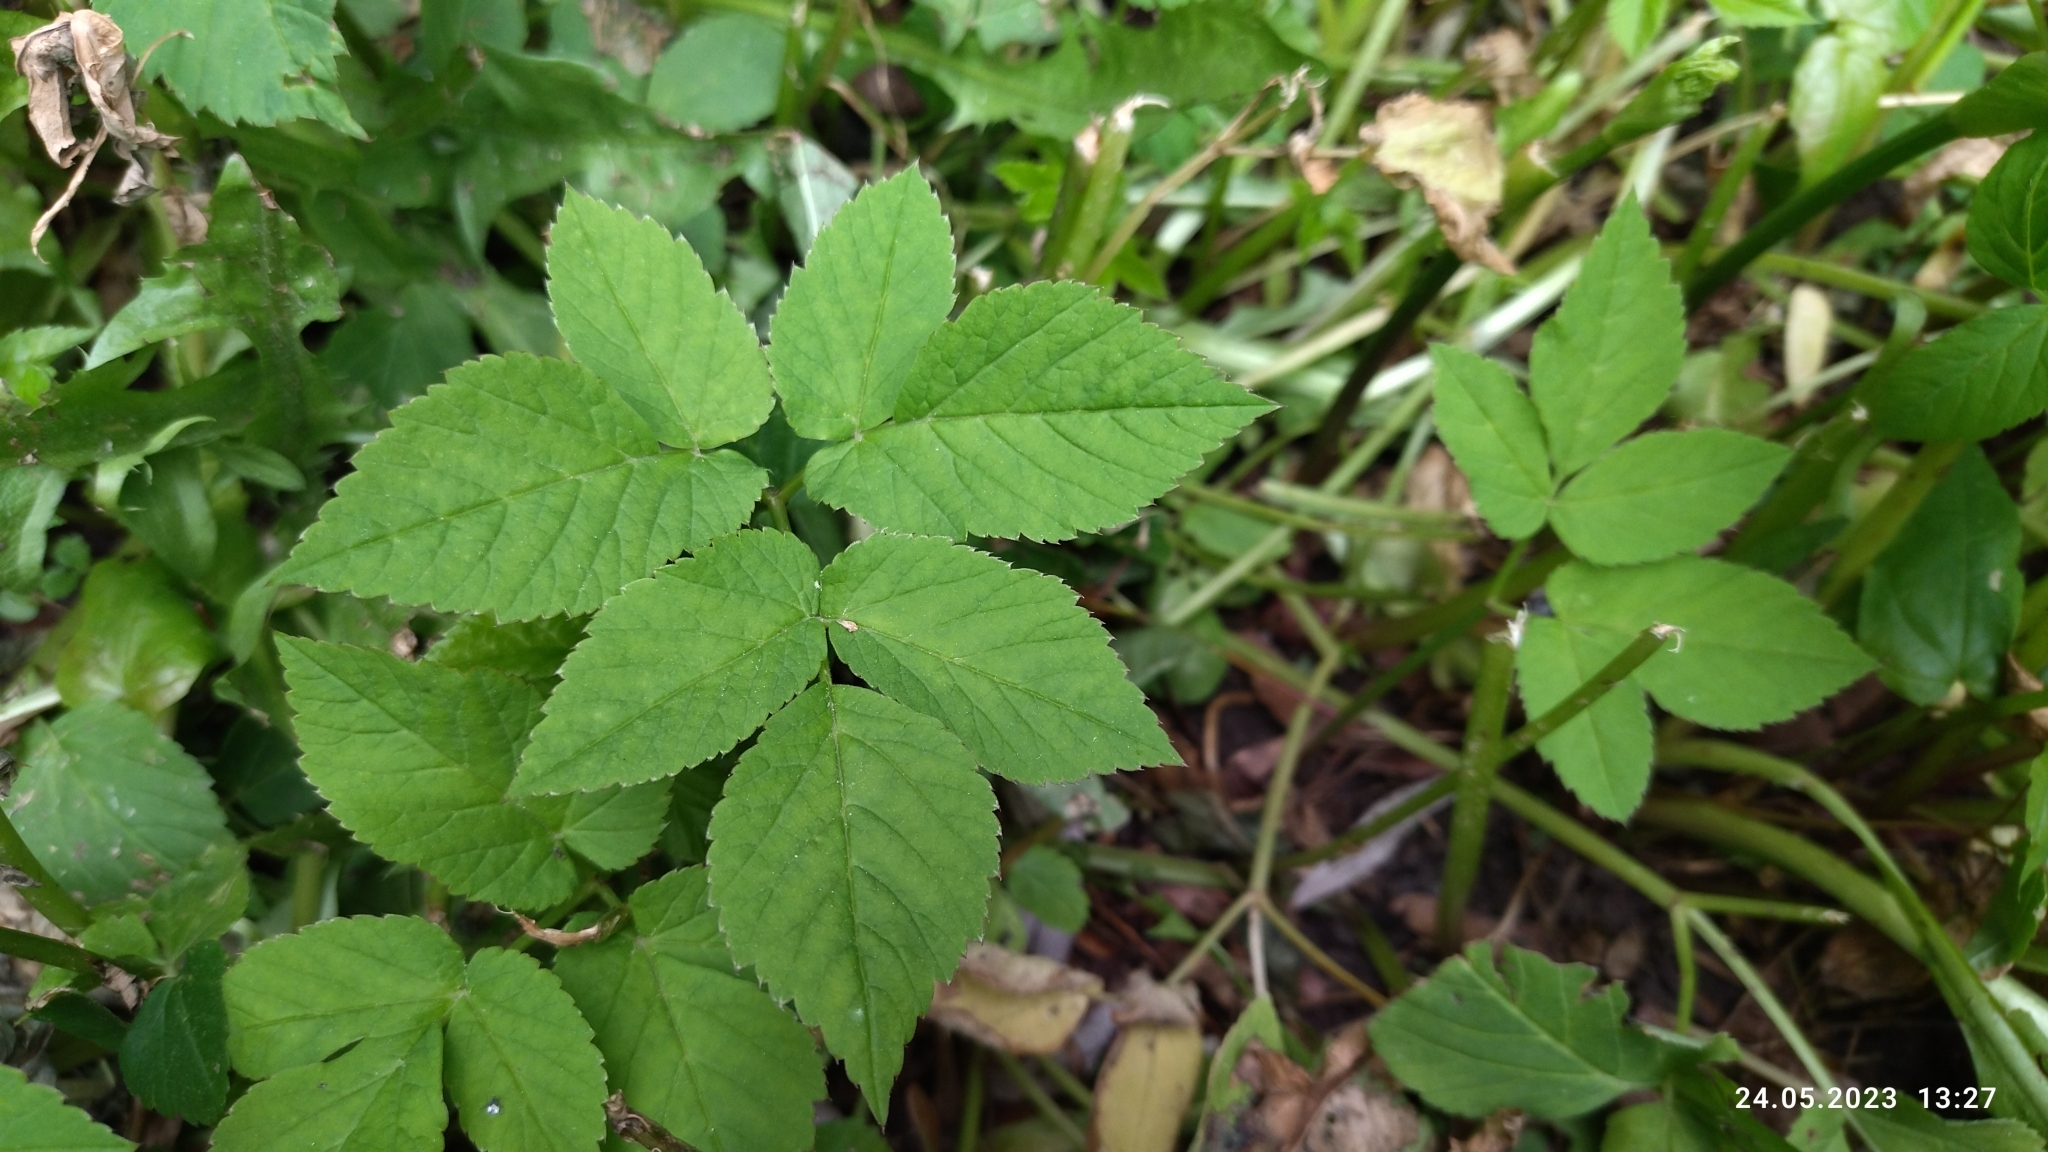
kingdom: Plantae
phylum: Tracheophyta
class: Magnoliopsida
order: Apiales
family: Apiaceae
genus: Aegopodium
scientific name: Aegopodium podagraria
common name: Ground-elder
